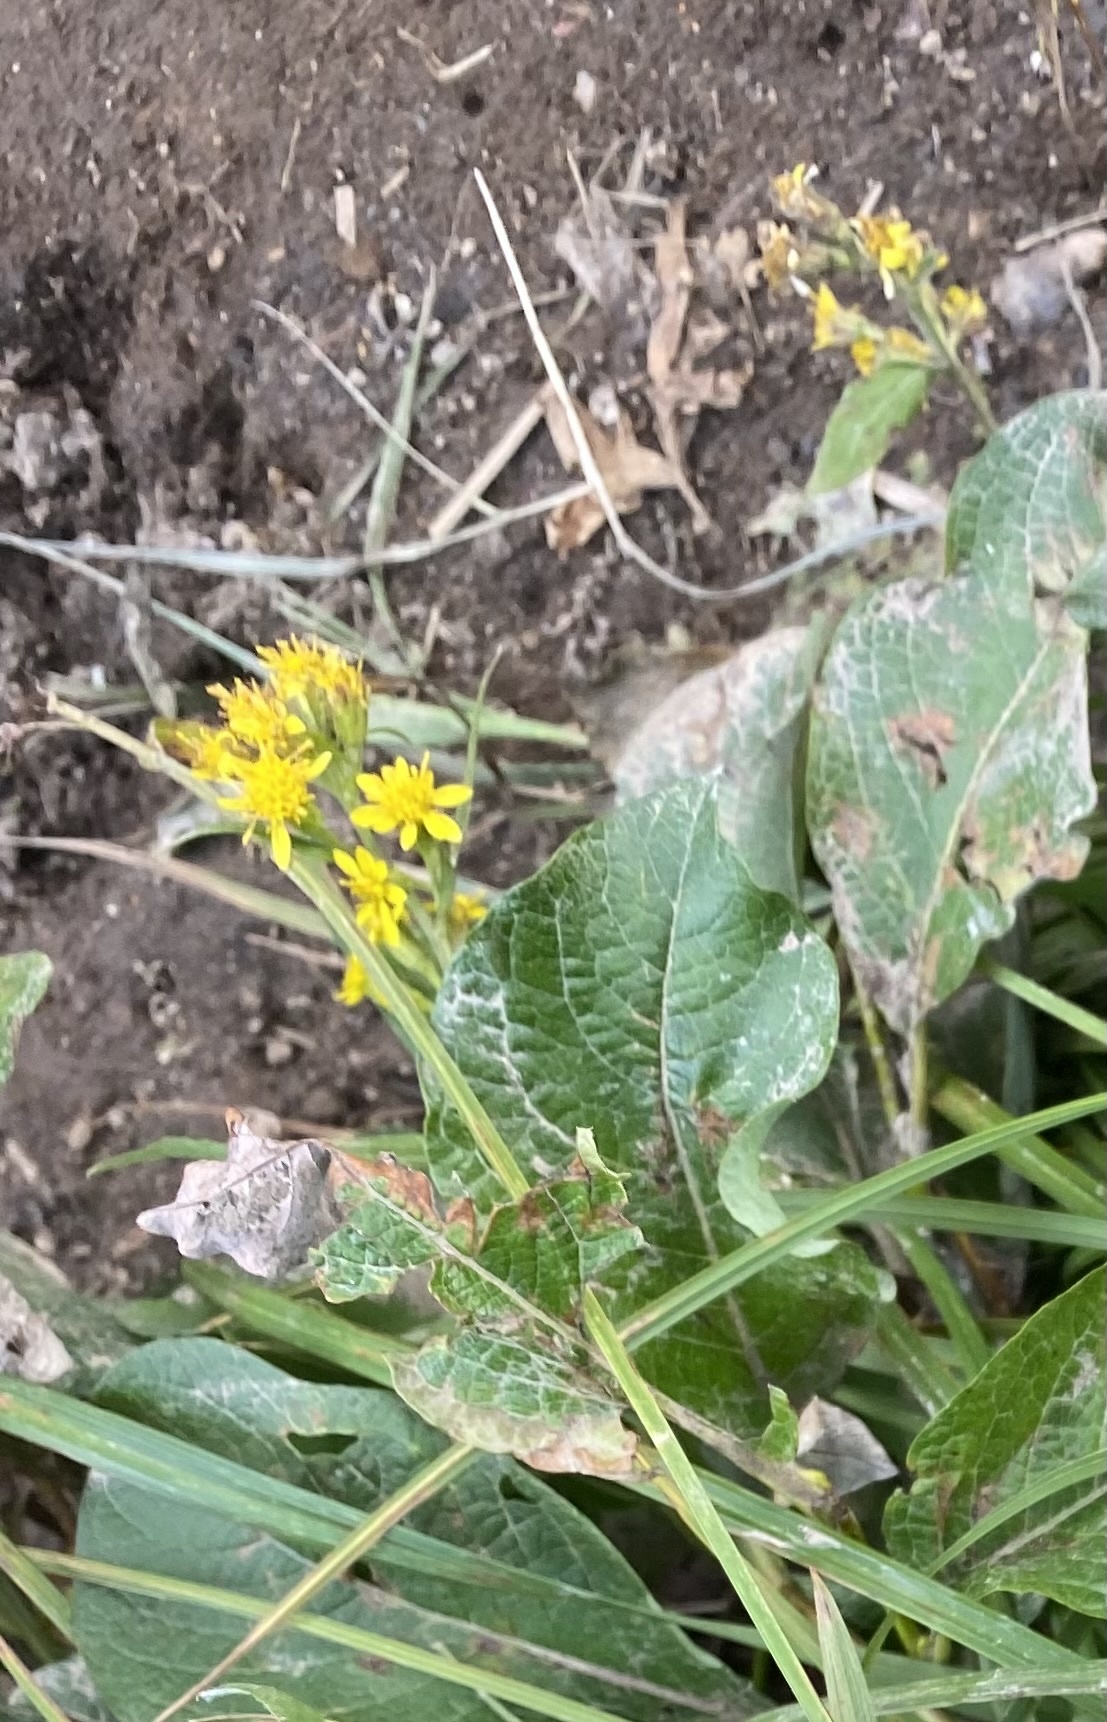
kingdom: Plantae
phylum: Tracheophyta
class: Magnoliopsida
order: Asterales
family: Asteraceae
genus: Solidago
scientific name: Solidago cuprea
